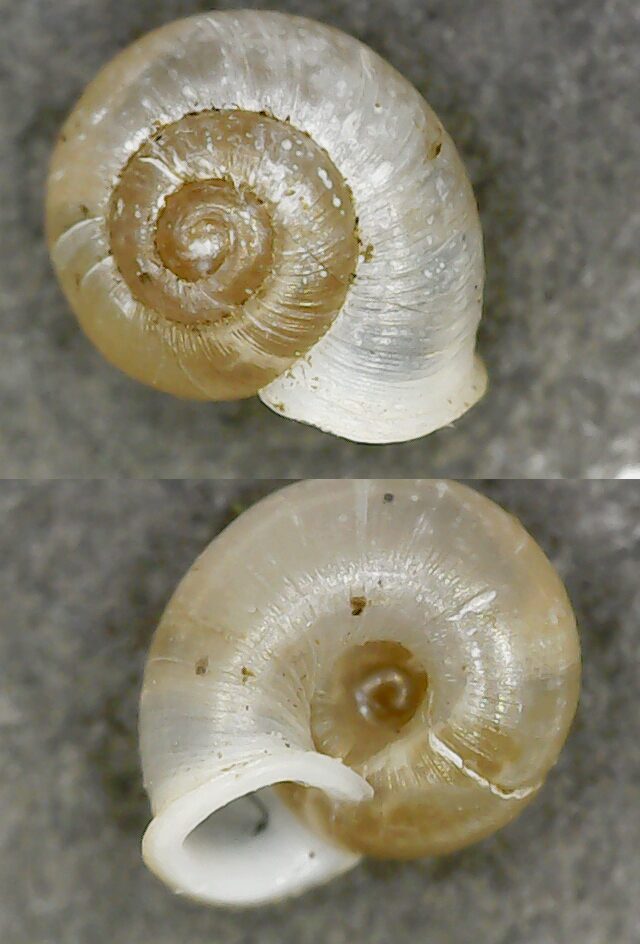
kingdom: Animalia
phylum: Mollusca
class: Gastropoda
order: Stylommatophora
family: Valloniidae
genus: Vallonia
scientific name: Vallonia pulchella
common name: Smooth grass snail
